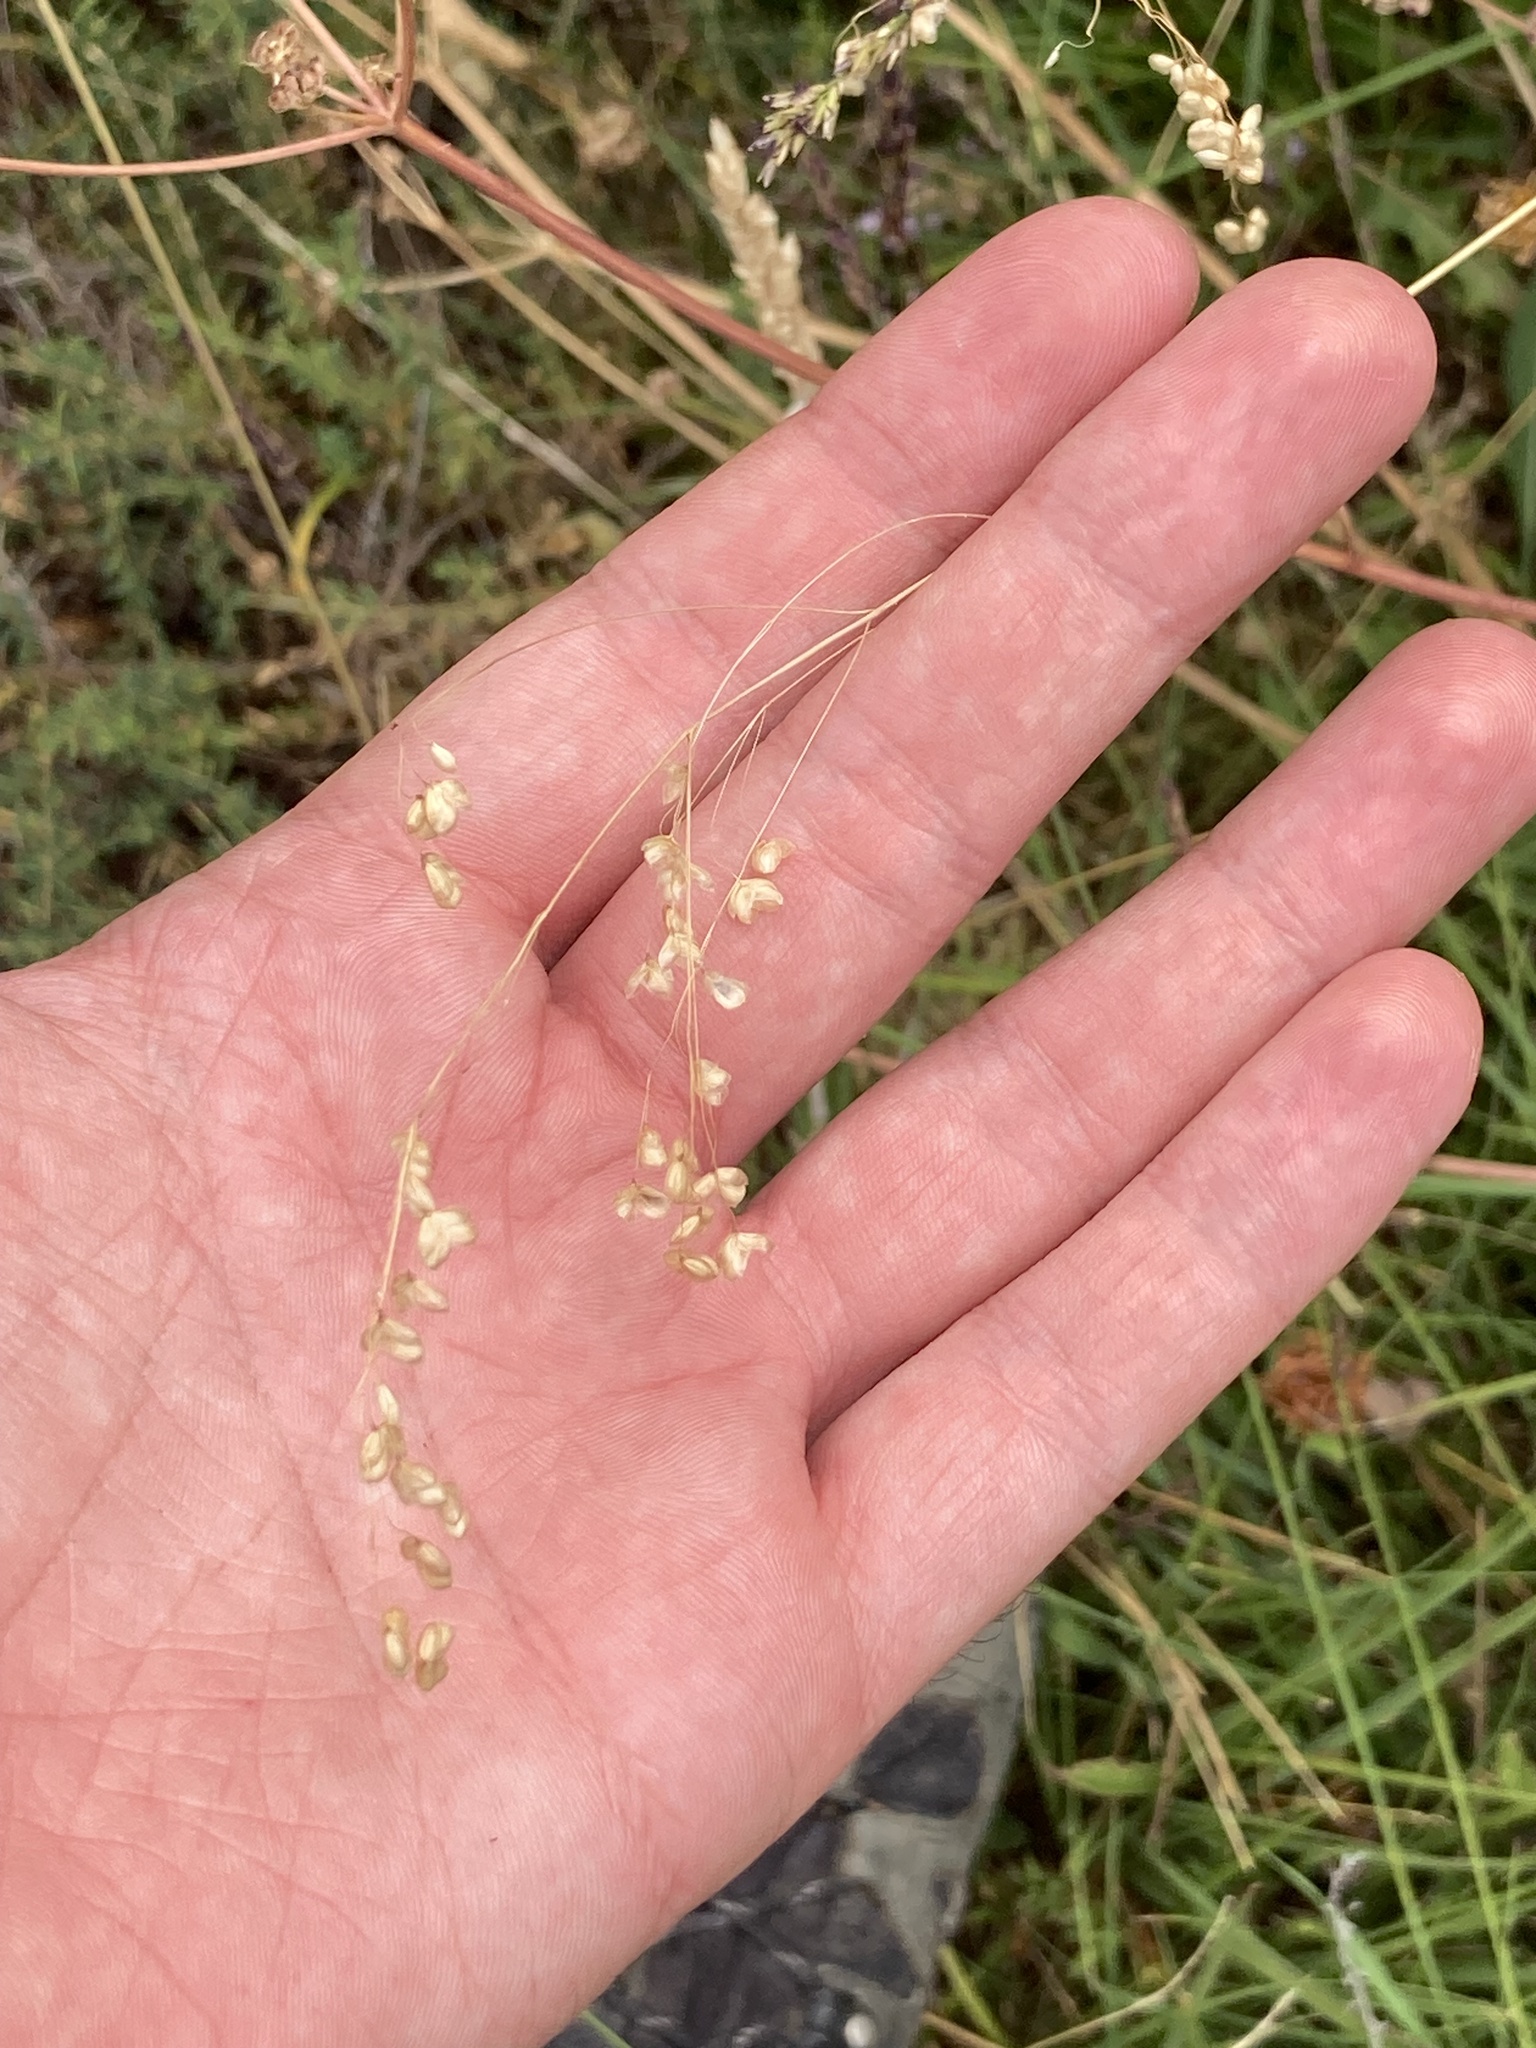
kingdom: Plantae
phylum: Tracheophyta
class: Liliopsida
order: Poales
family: Poaceae
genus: Briza
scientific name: Briza media
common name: Quaking grass
